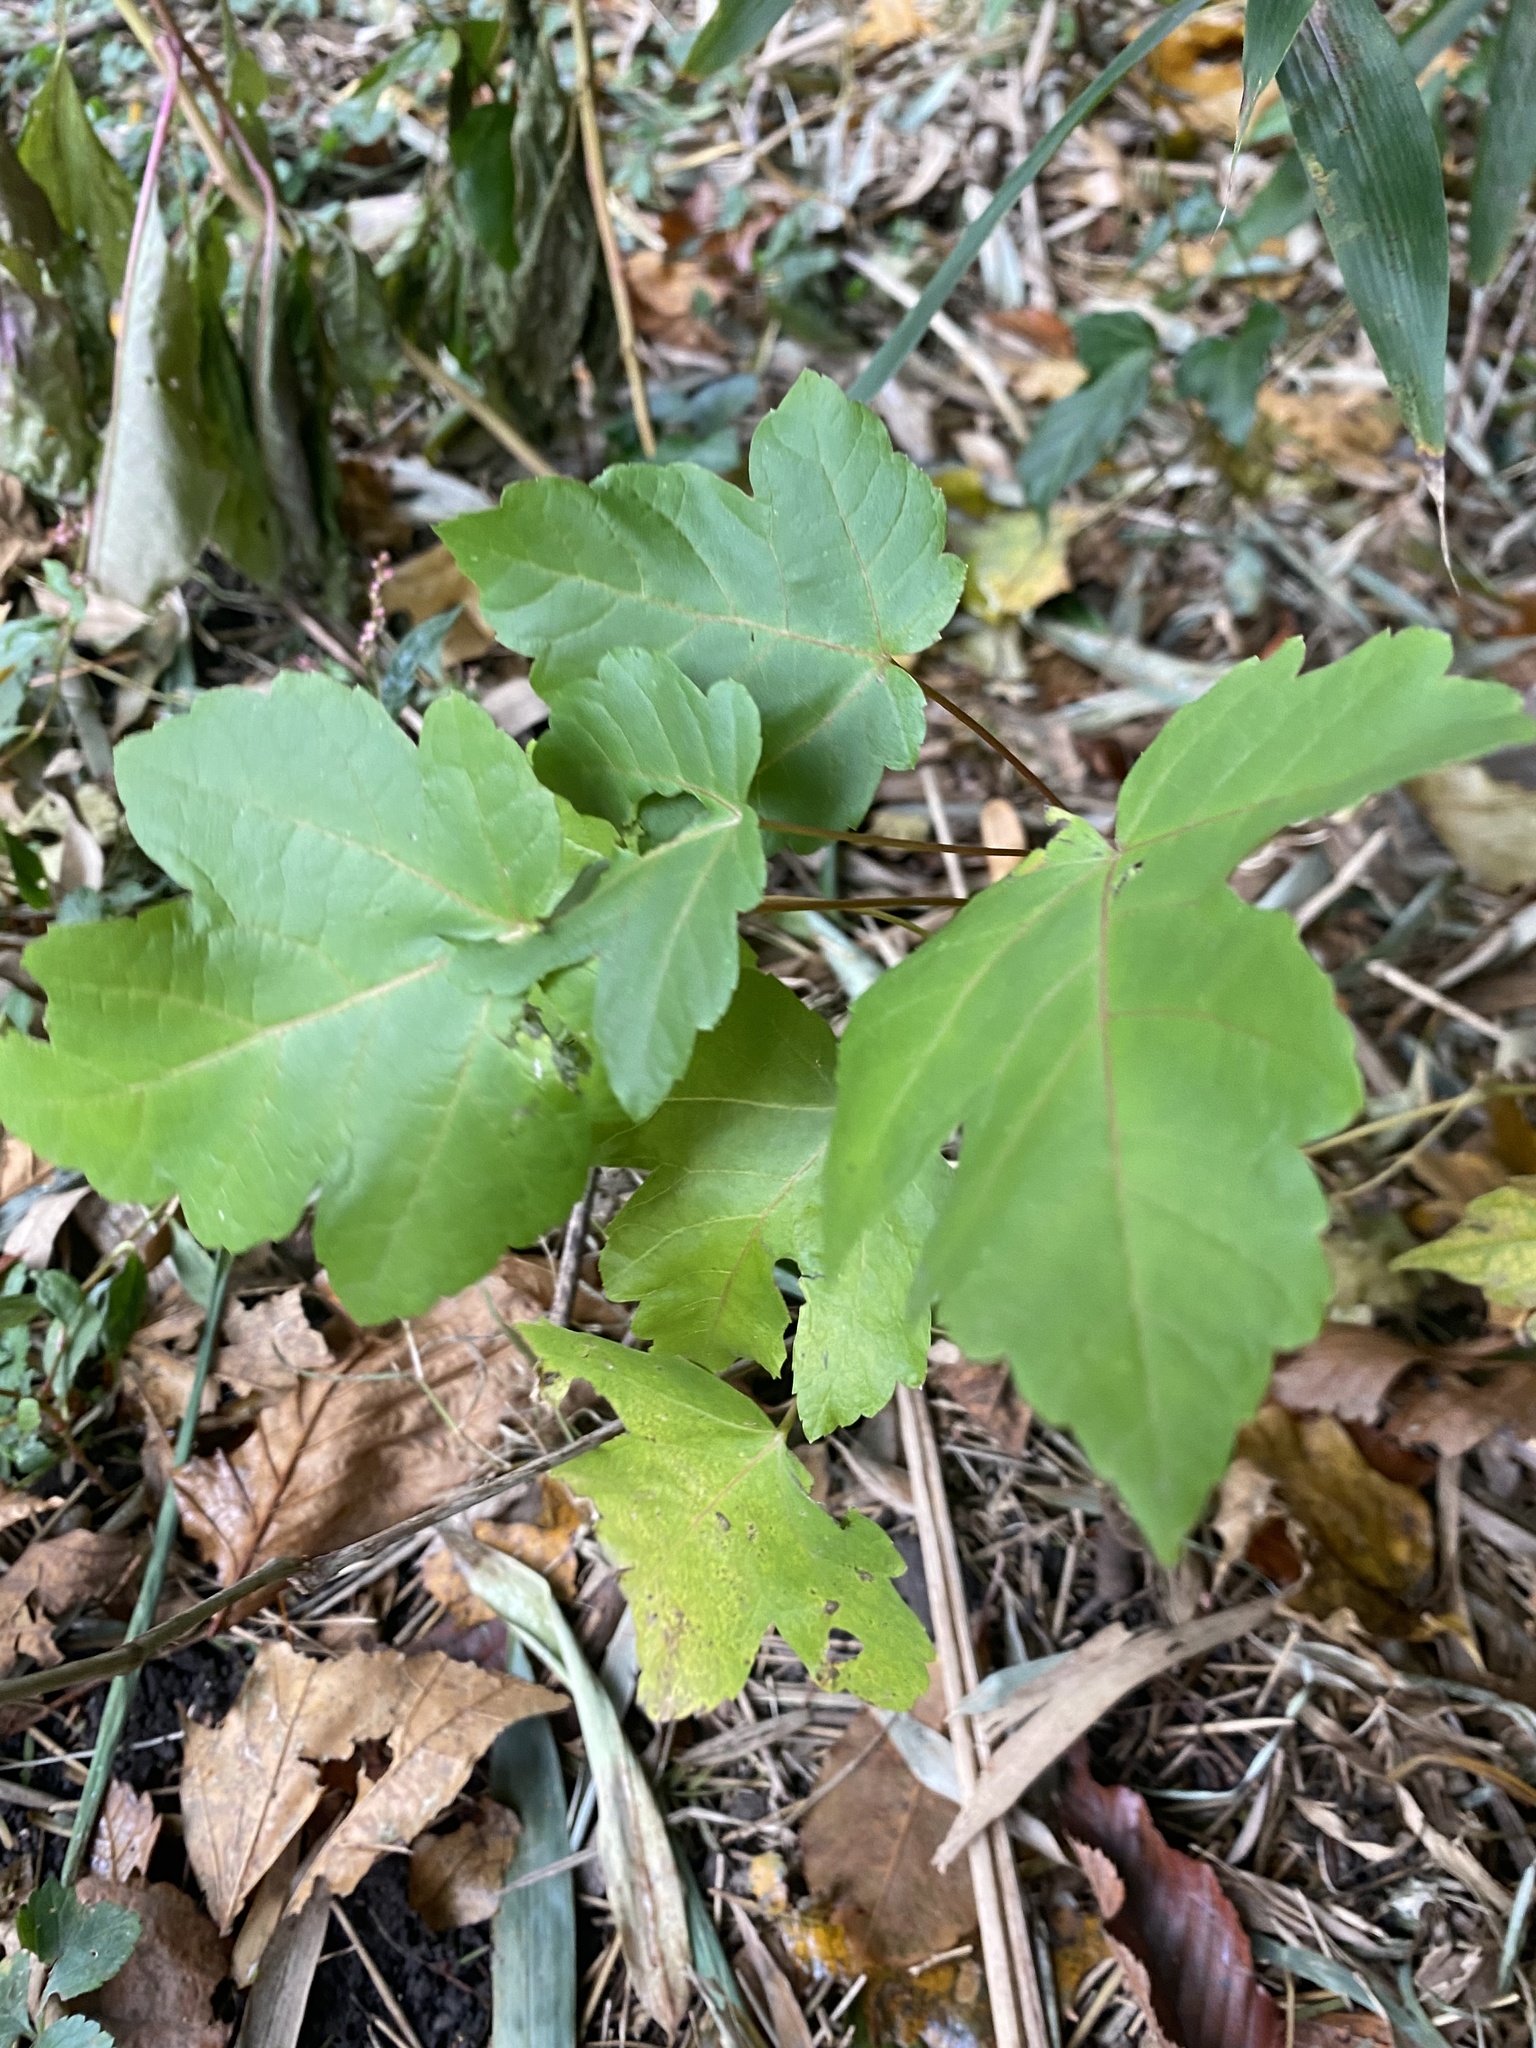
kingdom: Plantae
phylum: Tracheophyta
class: Magnoliopsida
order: Sapindales
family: Sapindaceae
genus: Acer
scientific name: Acer opalus
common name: Italian maple
